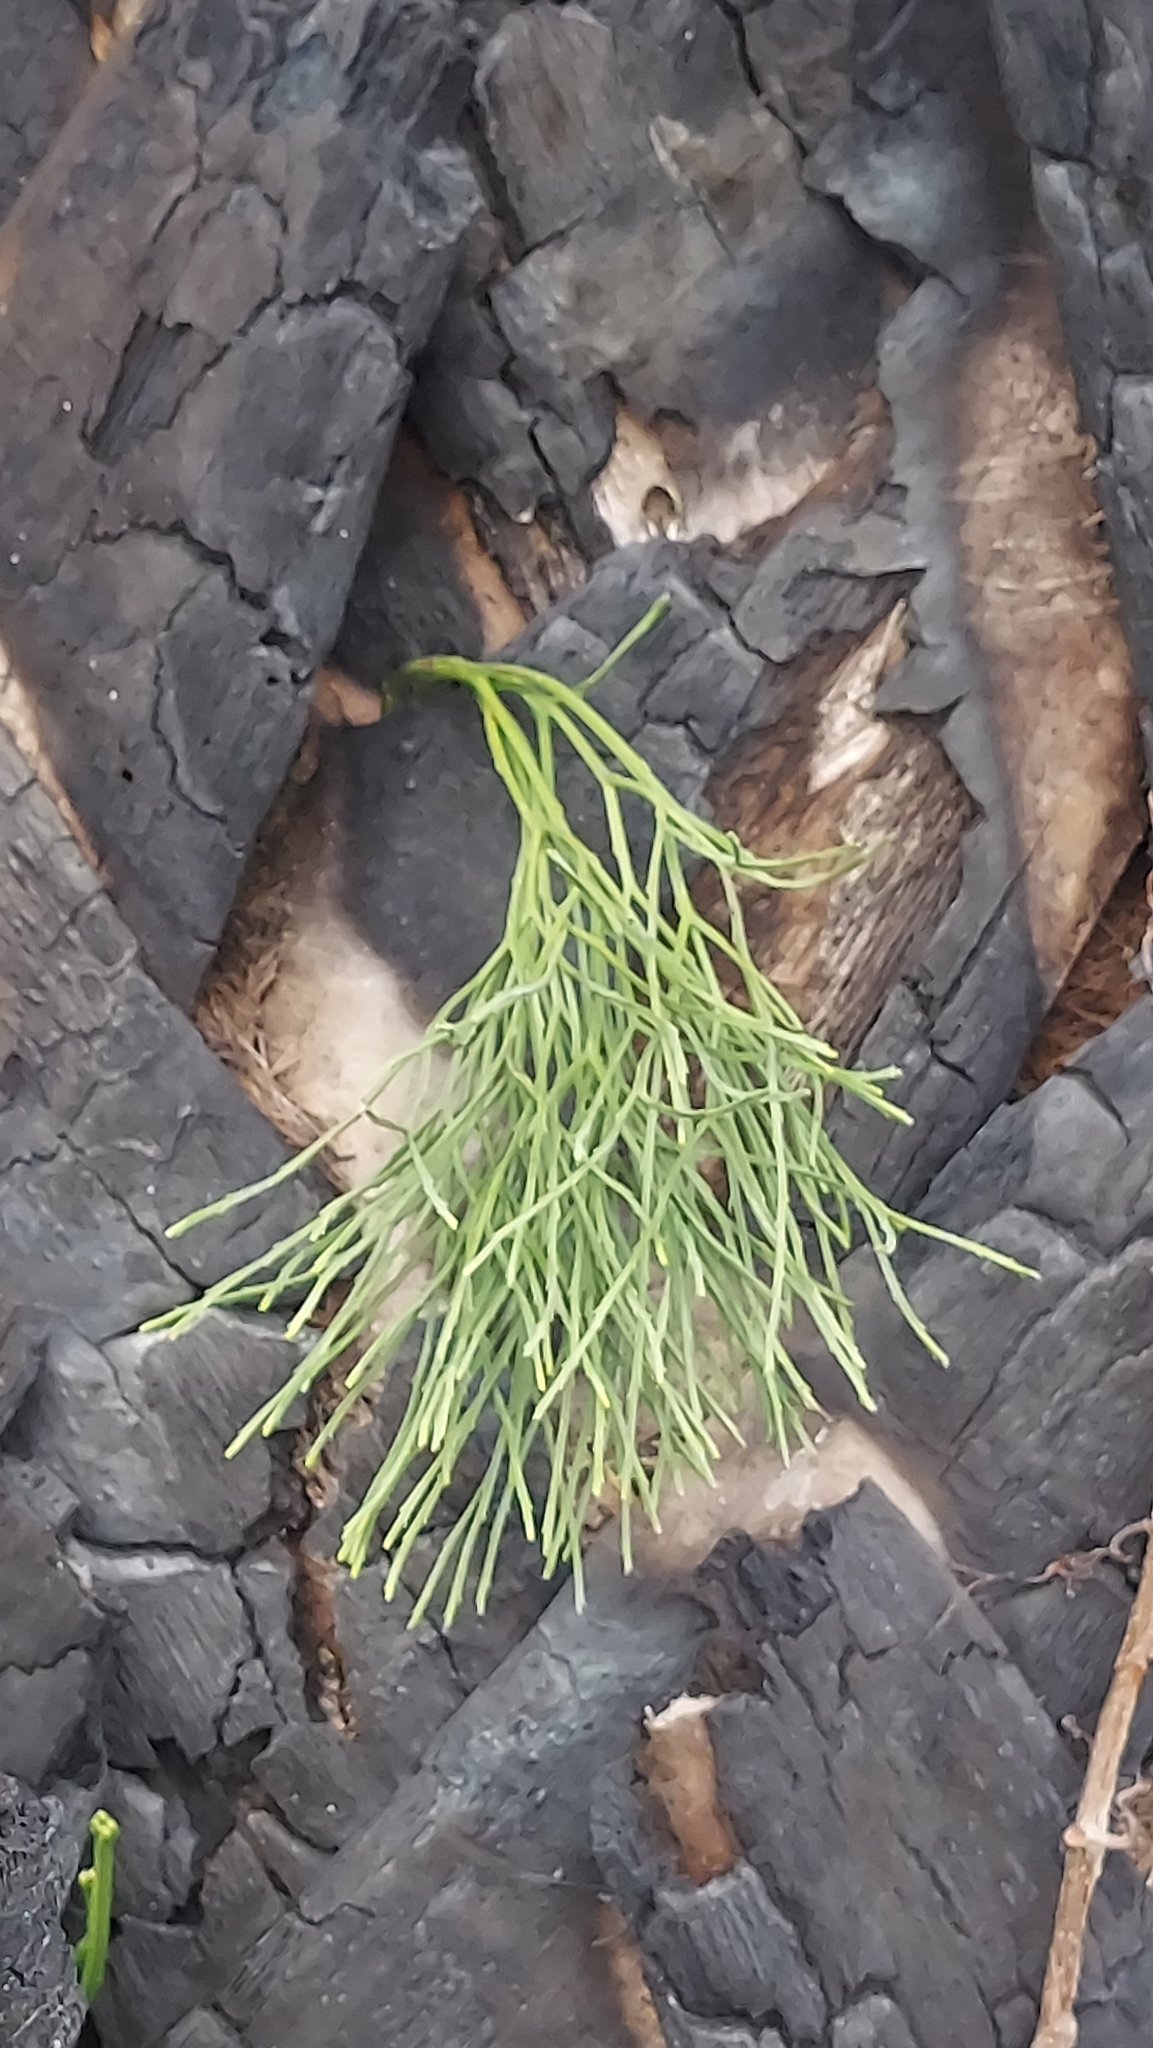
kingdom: Plantae
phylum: Tracheophyta
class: Polypodiopsida
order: Psilotales
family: Psilotaceae
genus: Psilotum
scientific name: Psilotum nudum
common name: Skeleton fork fern
